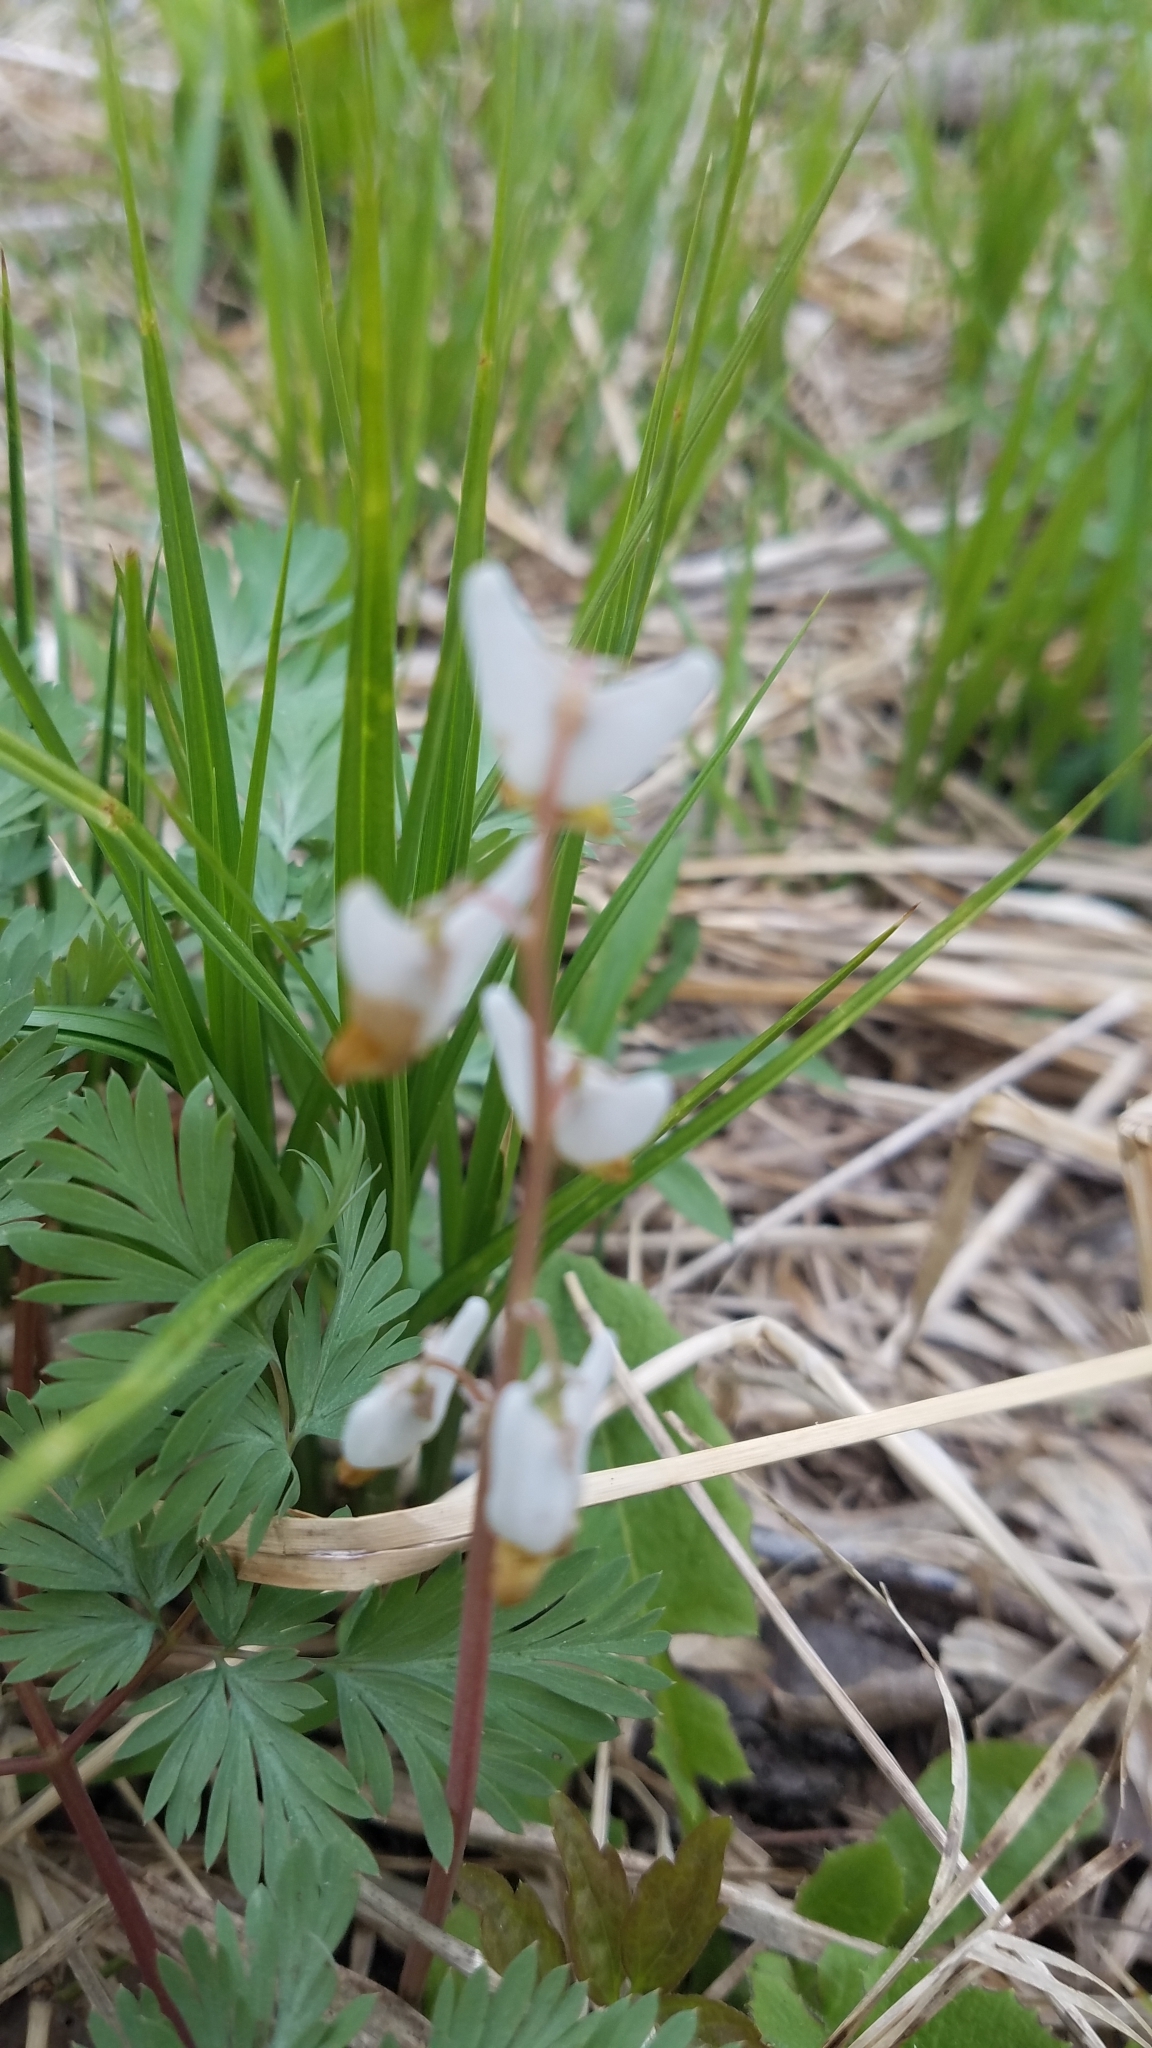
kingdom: Plantae
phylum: Tracheophyta
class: Magnoliopsida
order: Ranunculales
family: Papaveraceae
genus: Dicentra
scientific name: Dicentra cucullaria
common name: Dutchman's breeches
